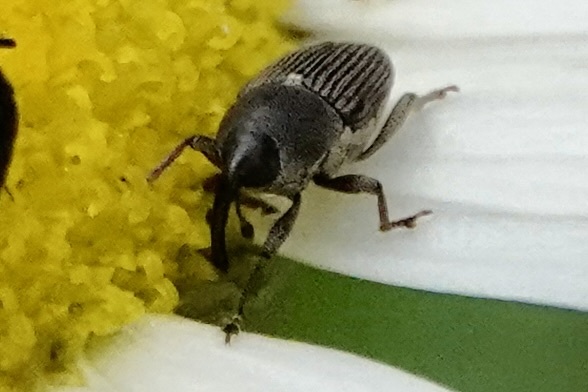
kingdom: Animalia
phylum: Arthropoda
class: Insecta
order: Coleoptera
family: Curculionidae
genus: Odontocorynus
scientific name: Odontocorynus salebrosus
